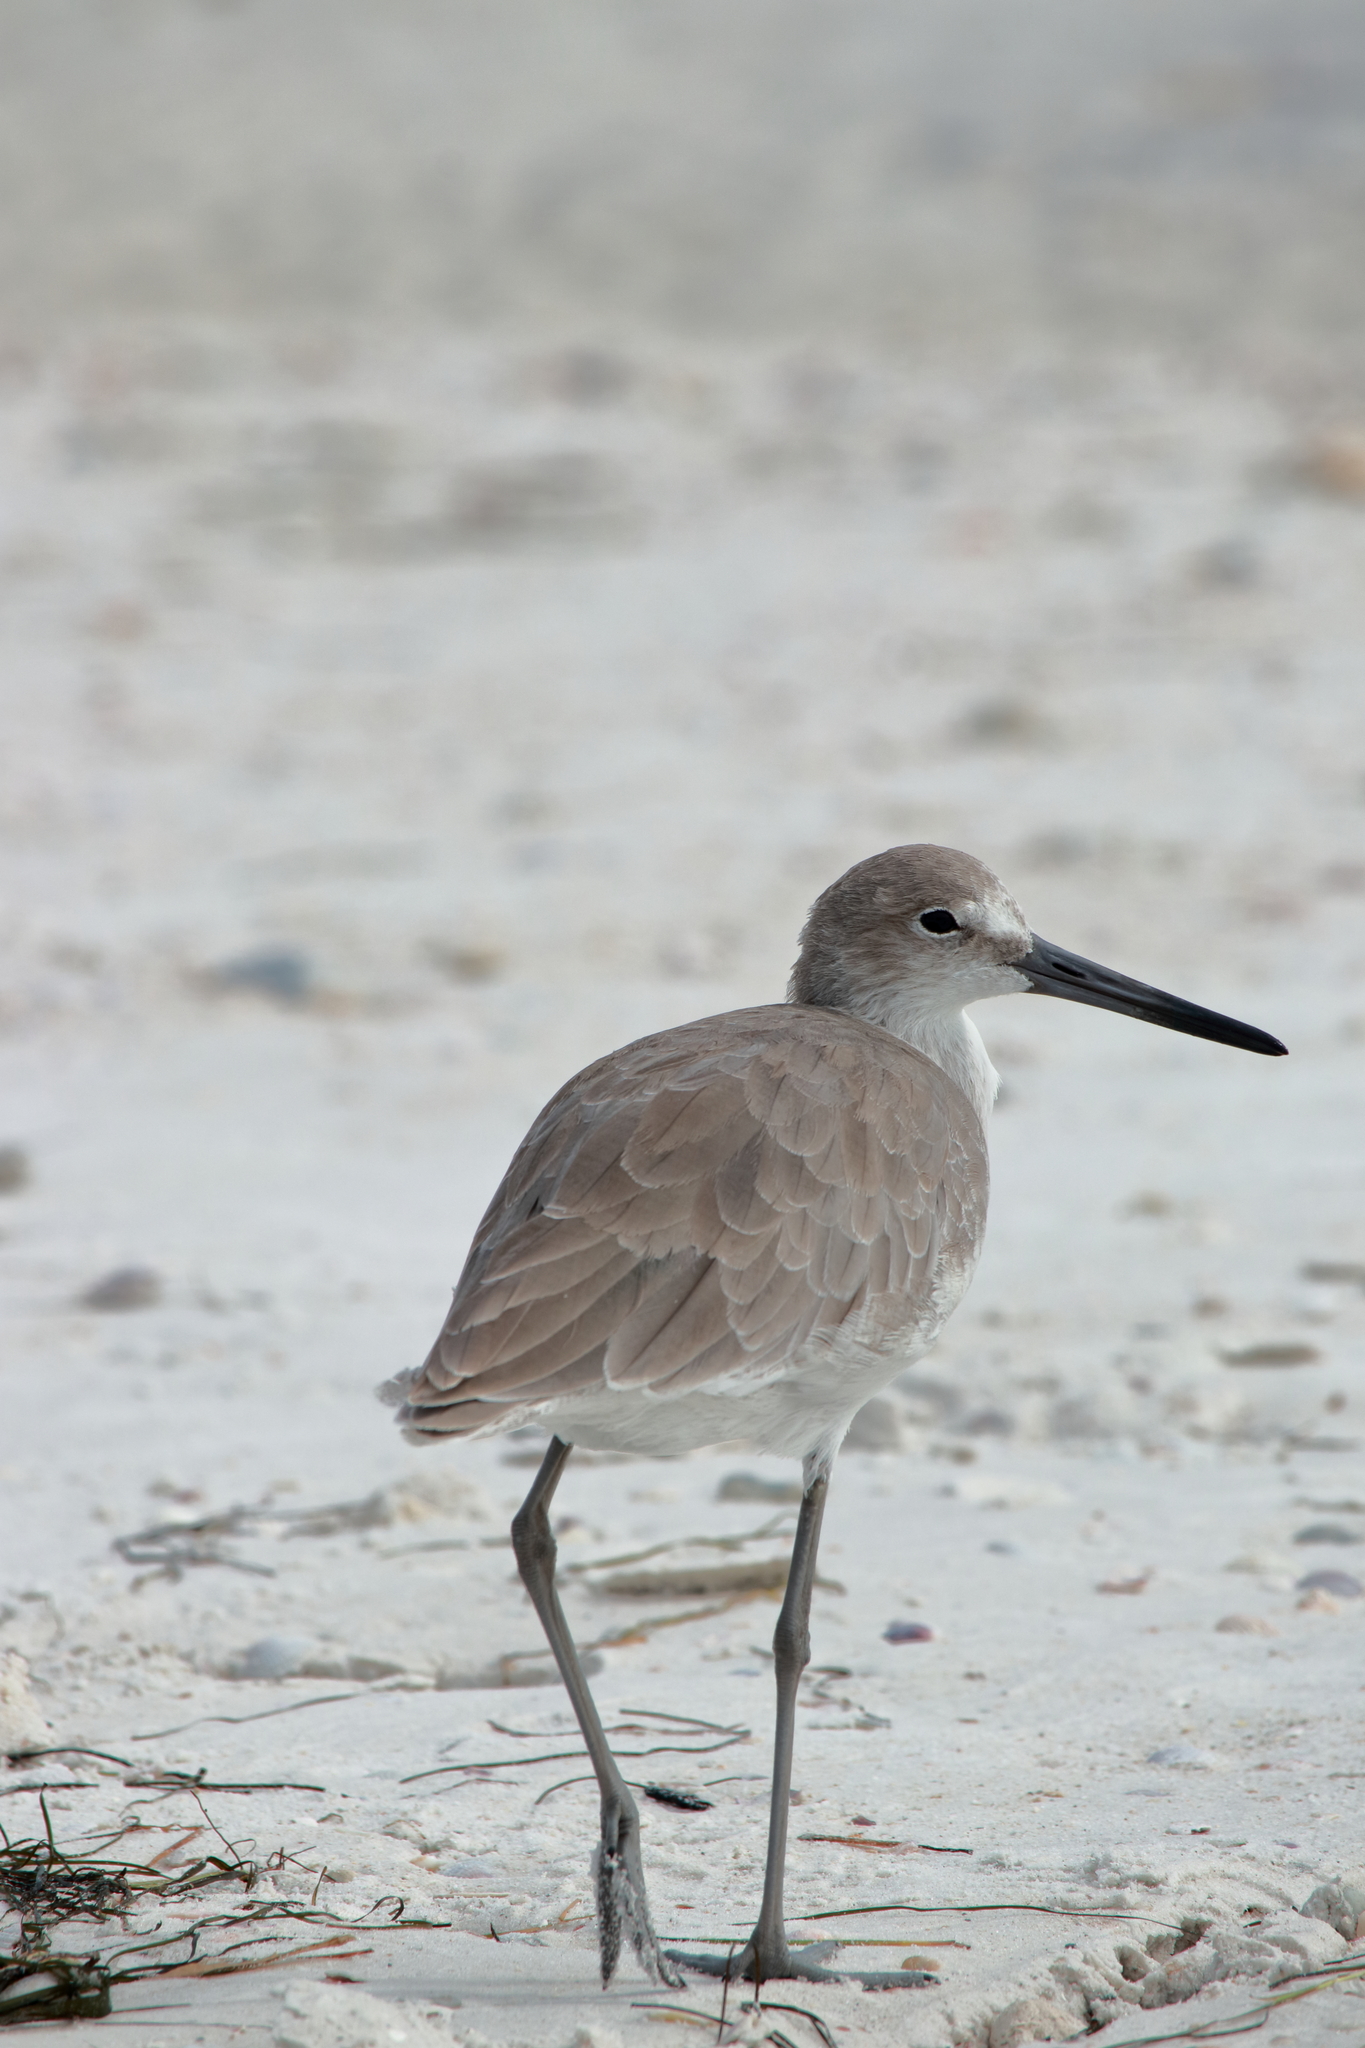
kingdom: Animalia
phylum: Chordata
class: Aves
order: Charadriiformes
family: Scolopacidae
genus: Tringa
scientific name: Tringa semipalmata
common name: Willet
